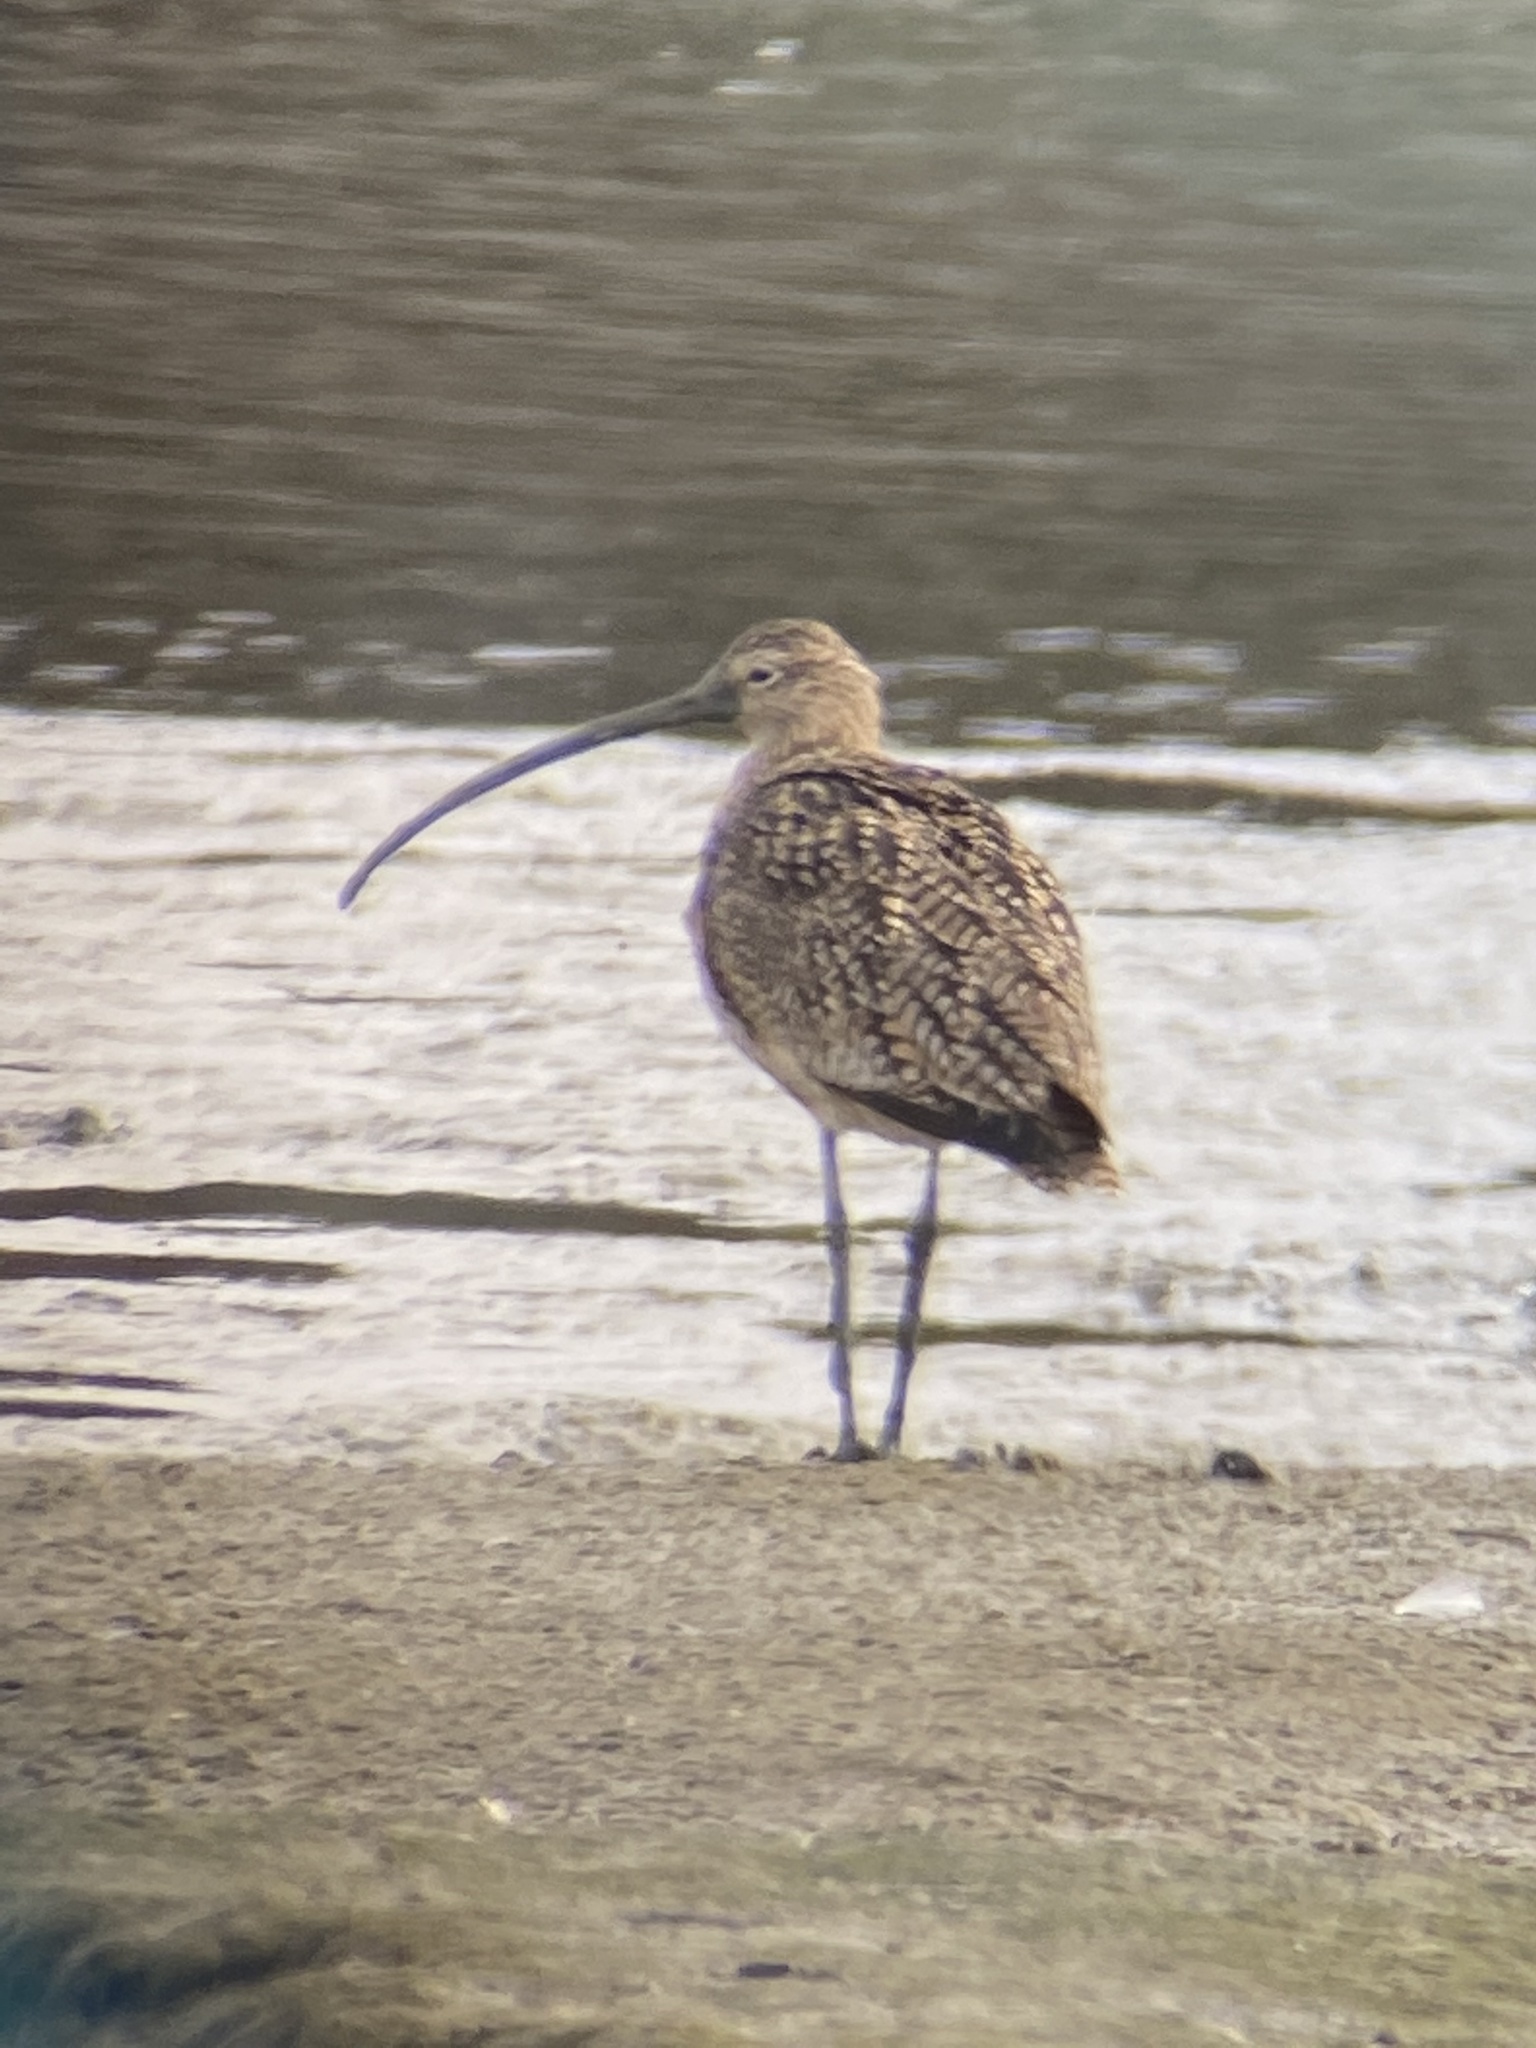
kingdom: Animalia
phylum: Chordata
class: Aves
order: Charadriiformes
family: Scolopacidae
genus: Numenius
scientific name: Numenius americanus
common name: Long-billed curlew
